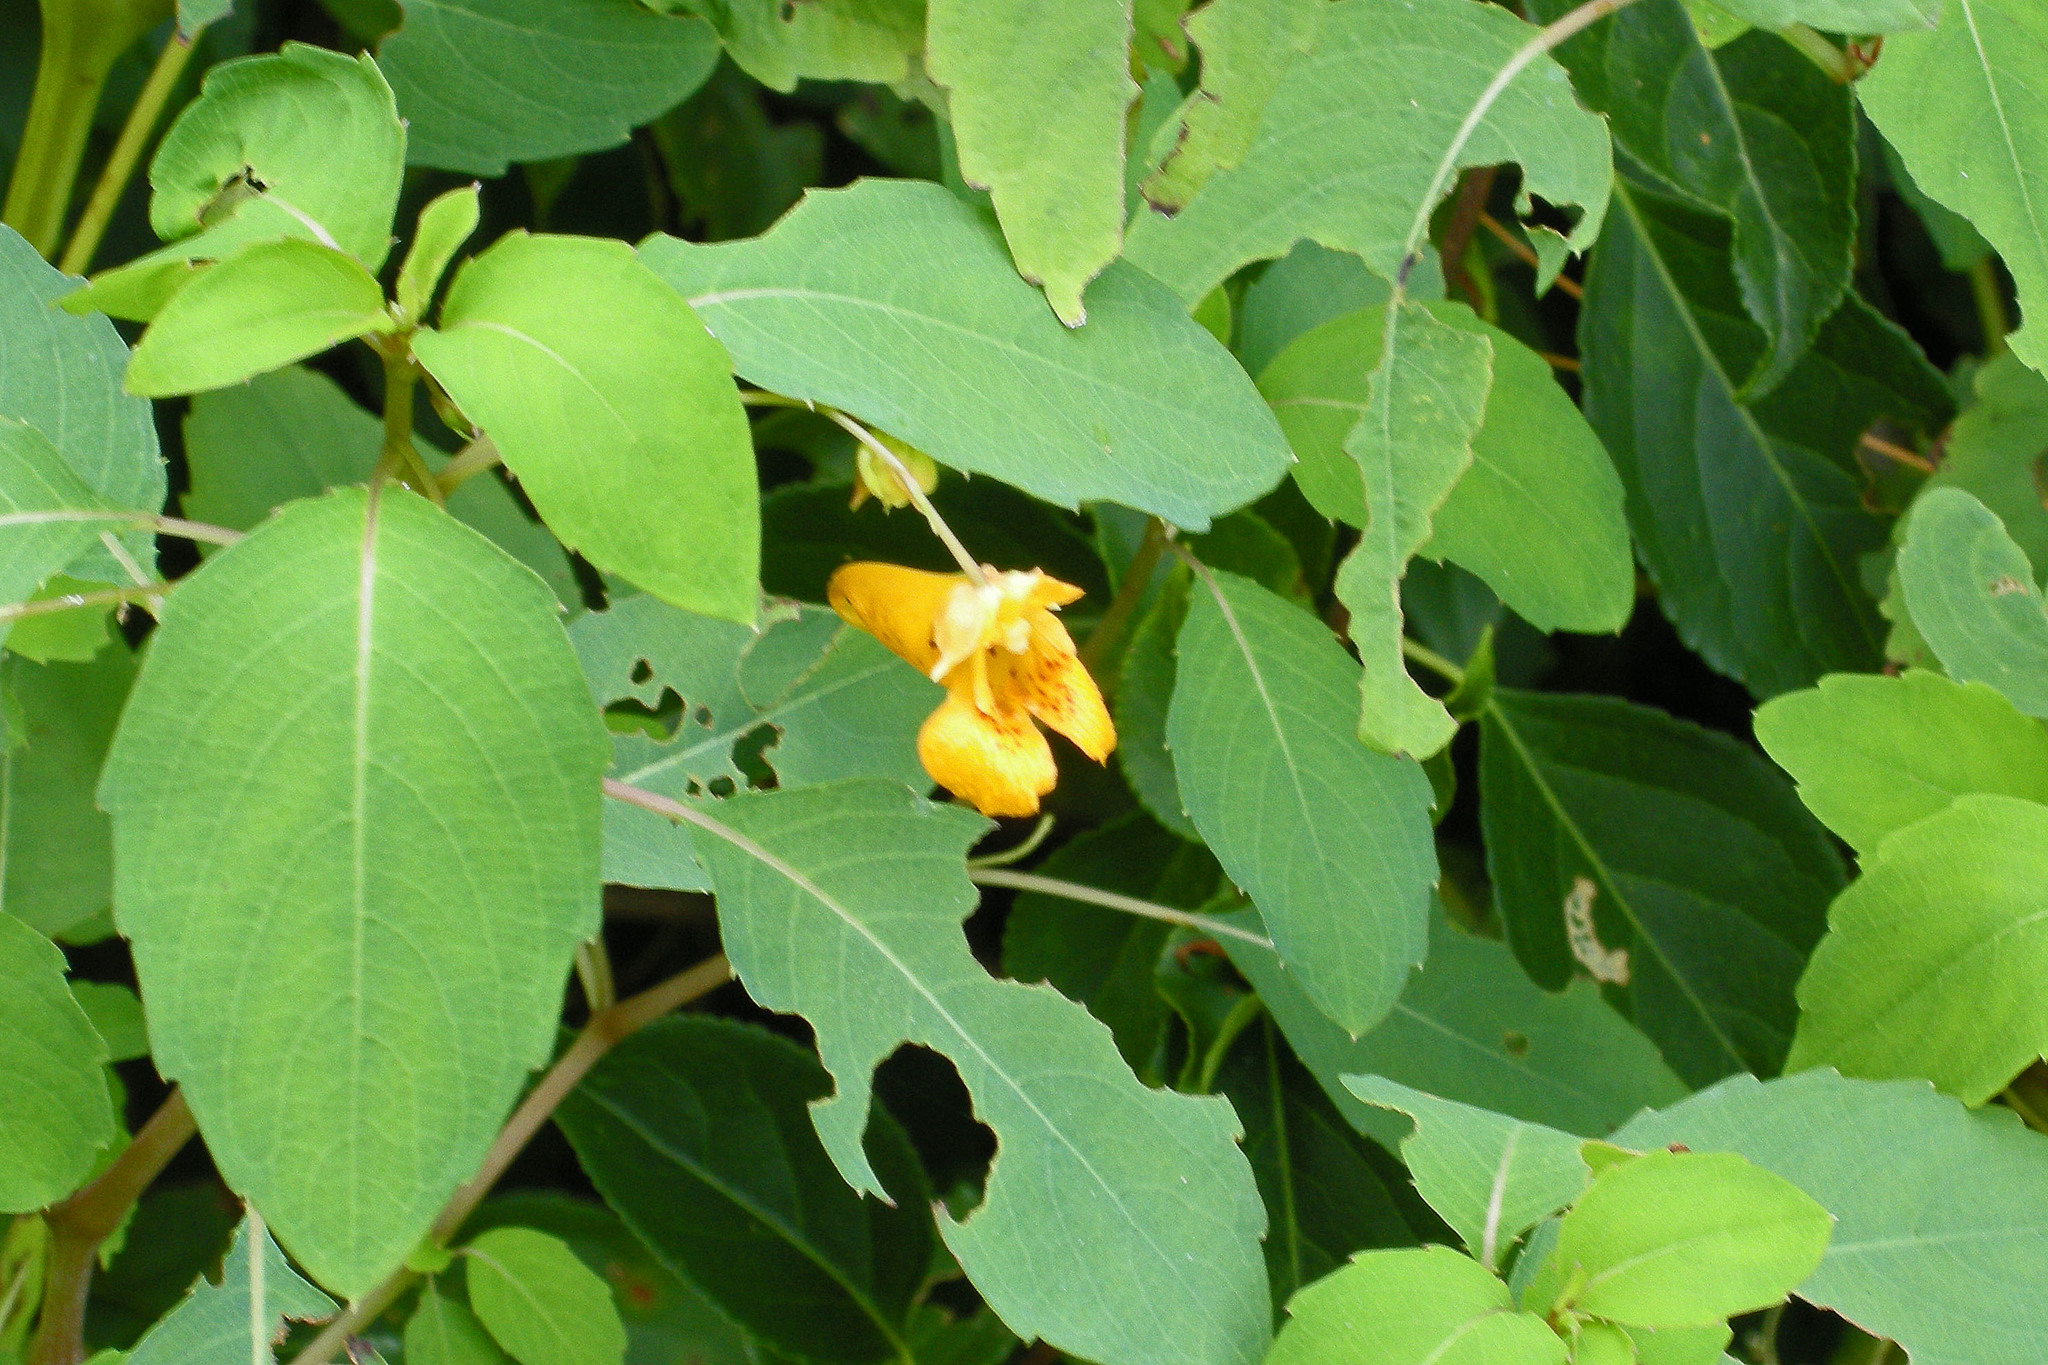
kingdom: Plantae
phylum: Tracheophyta
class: Magnoliopsida
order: Ericales
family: Balsaminaceae
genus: Impatiens
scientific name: Impatiens capensis
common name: Orange balsam
